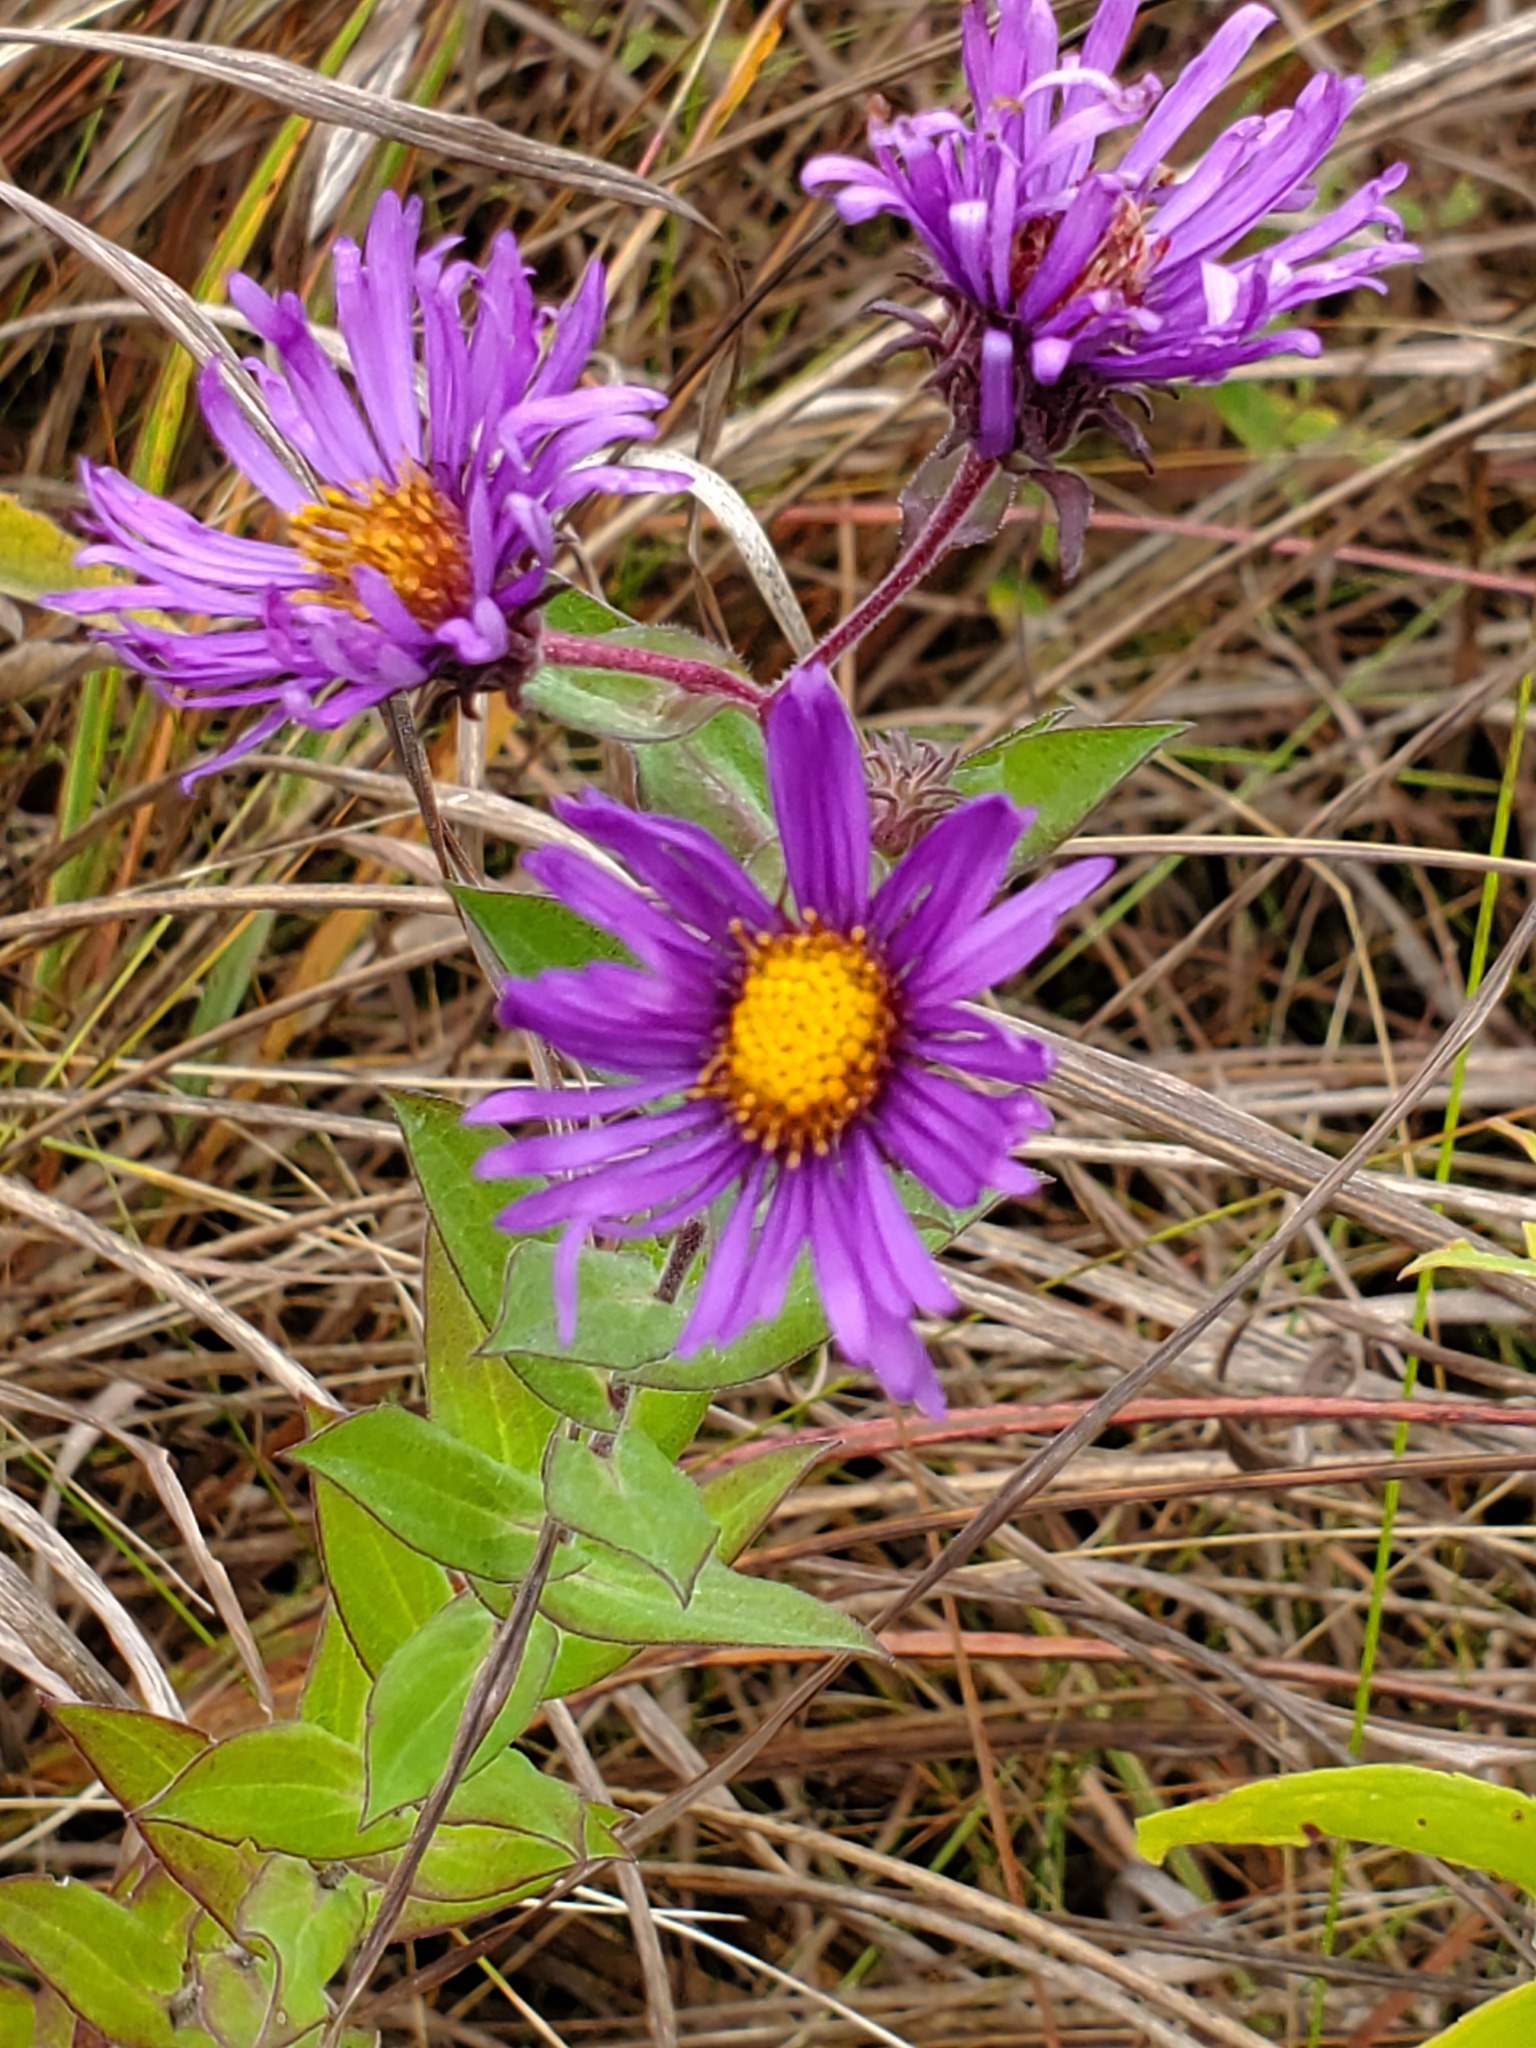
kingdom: Plantae
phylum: Tracheophyta
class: Magnoliopsida
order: Asterales
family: Asteraceae
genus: Symphyotrichum
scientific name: Symphyotrichum novae-angliae
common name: Michaelmas daisy
